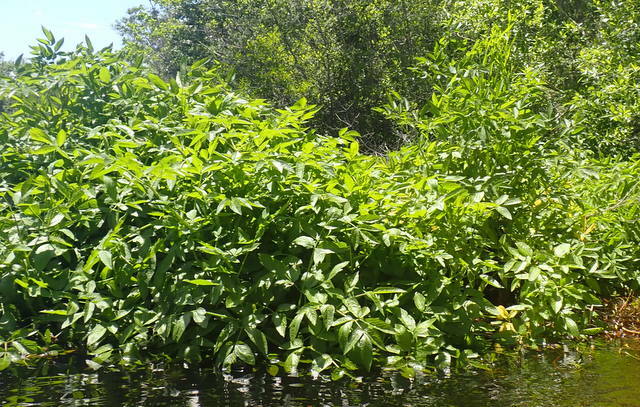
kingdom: Plantae
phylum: Tracheophyta
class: Magnoliopsida
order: Apiales
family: Apiaceae
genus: Cicuta
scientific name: Cicuta maculata
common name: Spotted cowbane
